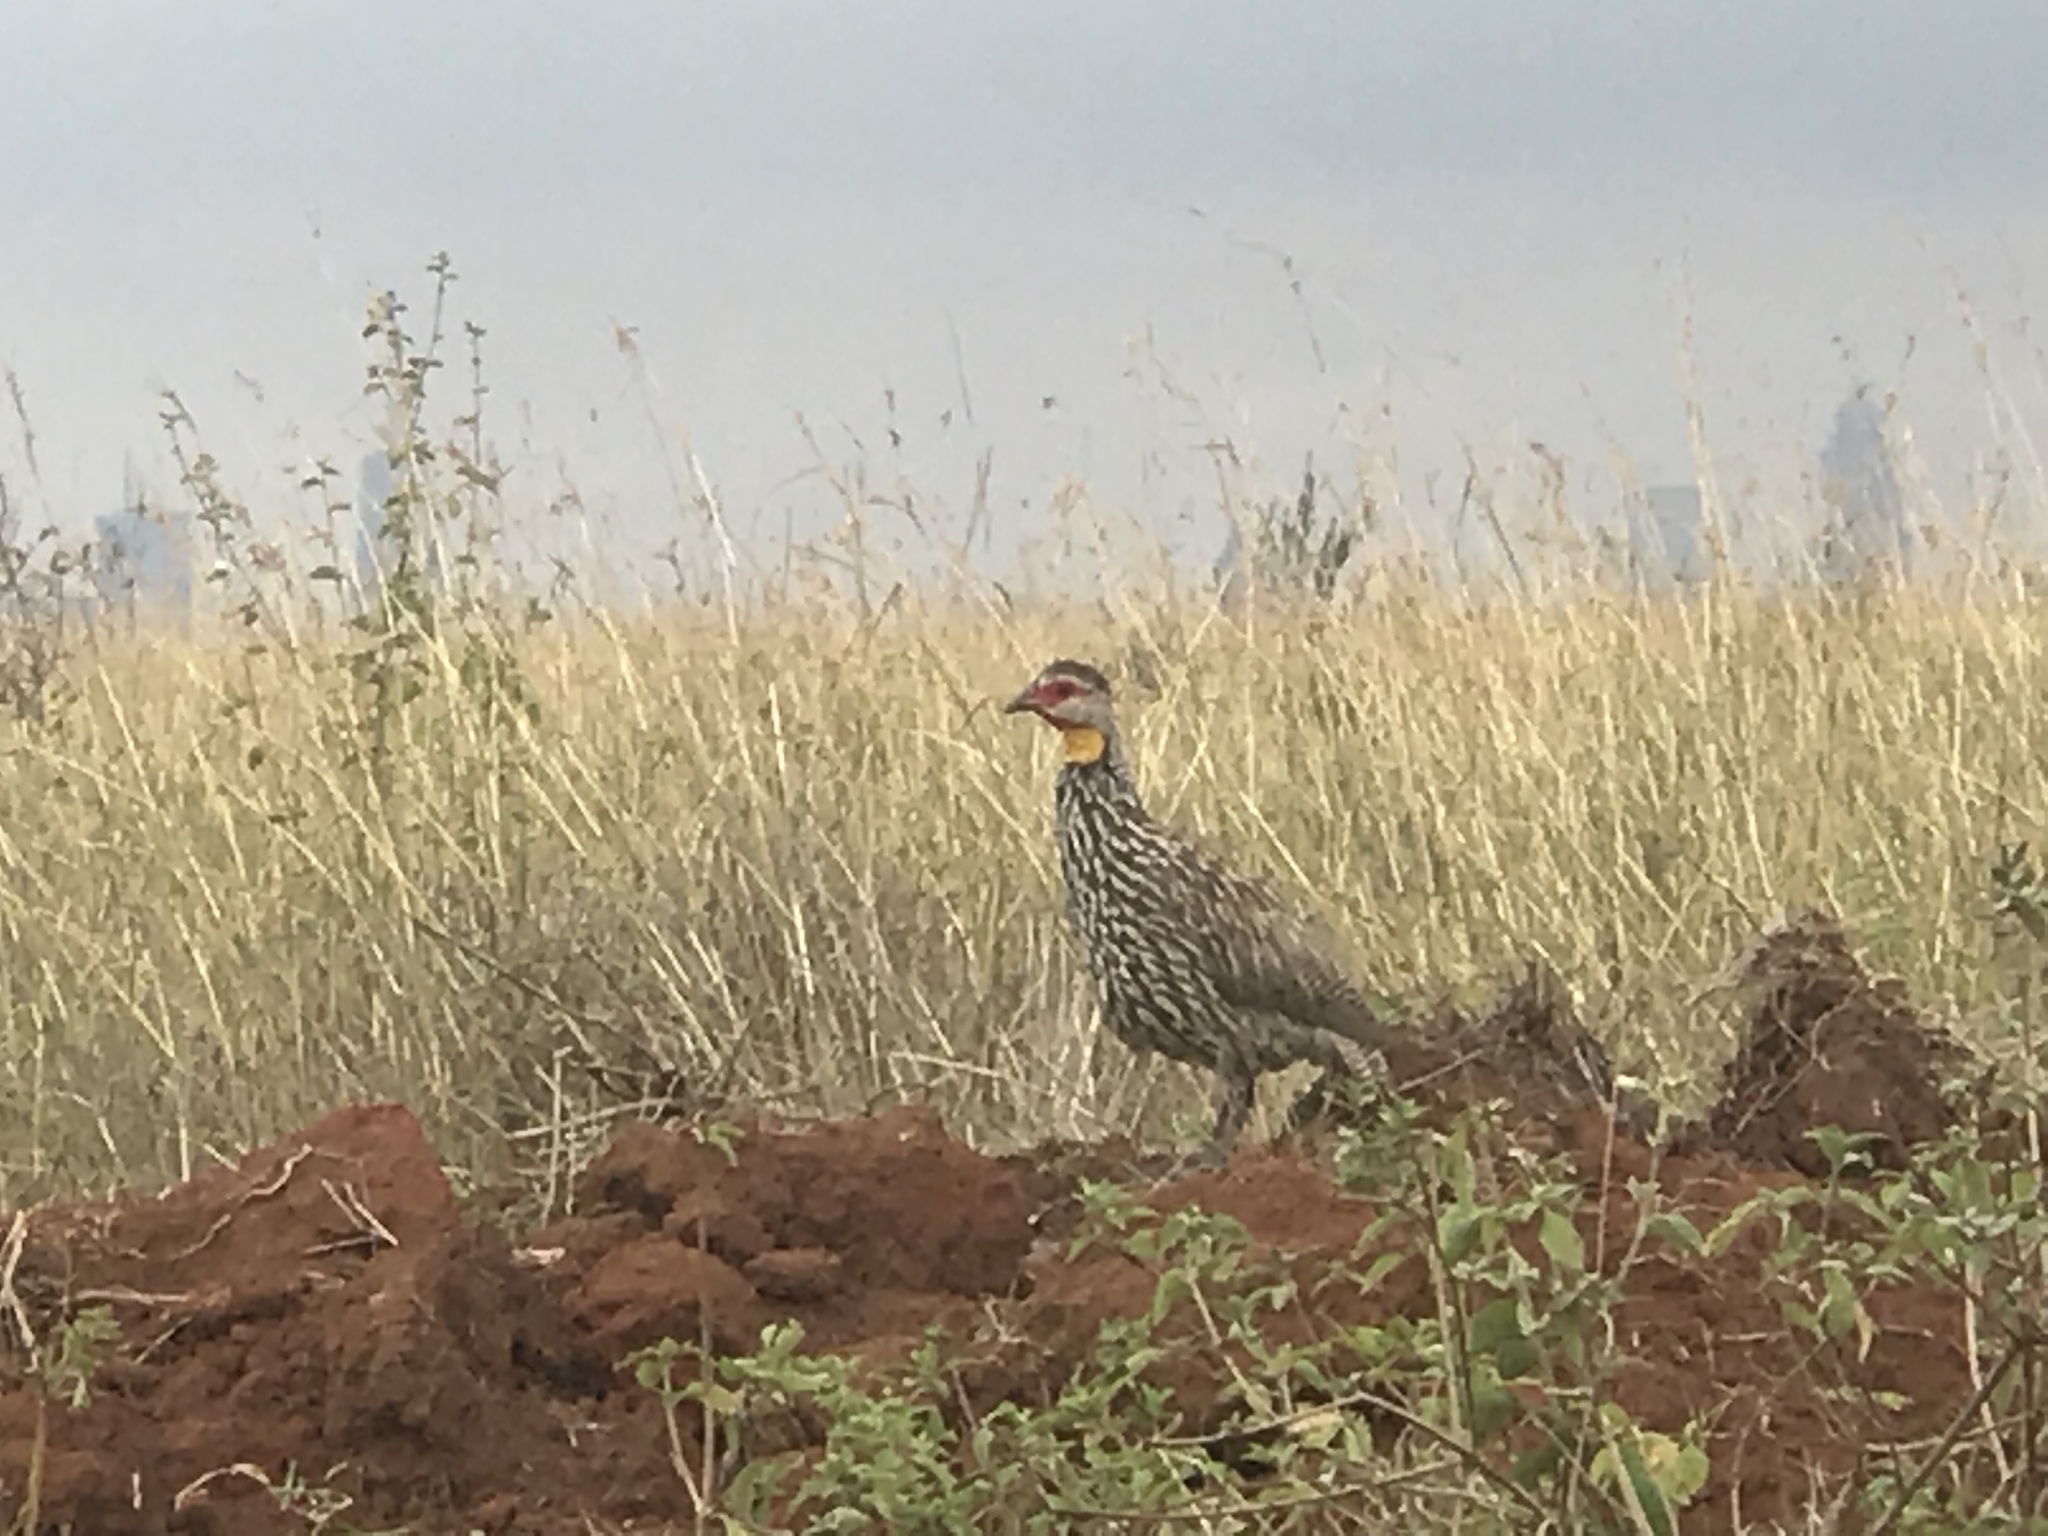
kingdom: Animalia
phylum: Chordata
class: Aves
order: Galliformes
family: Phasianidae
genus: Pternistis
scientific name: Pternistis leucoscepus
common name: Yellow-necked spurfowl
